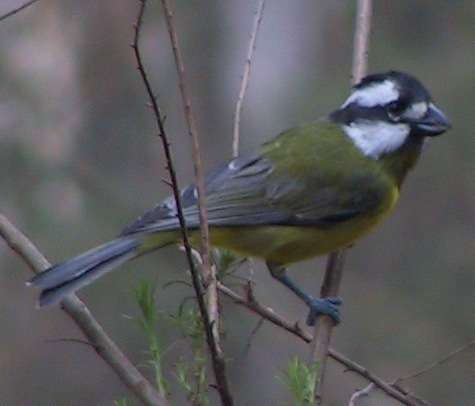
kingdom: Animalia
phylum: Chordata
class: Aves
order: Passeriformes
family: Pachycephalidae
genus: Falcunculus
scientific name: Falcunculus frontatus
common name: Crested shriketit
